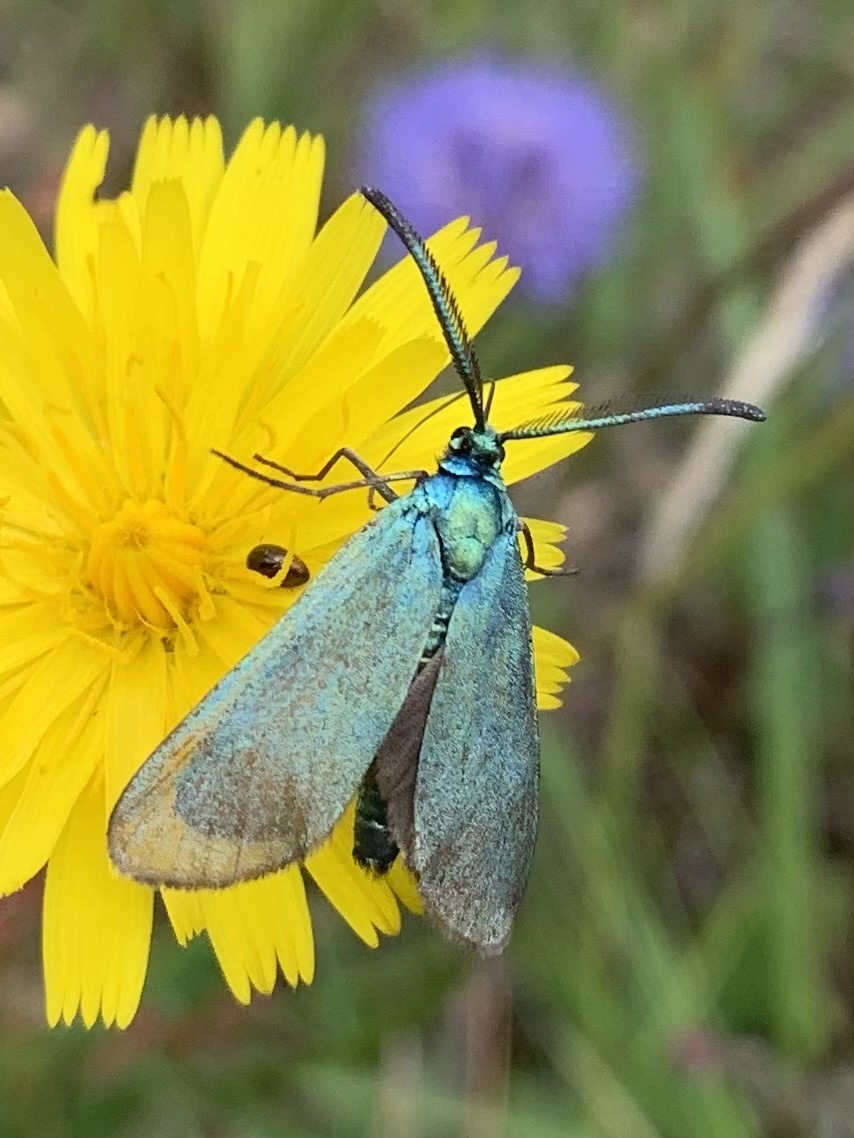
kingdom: Animalia
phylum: Arthropoda
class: Insecta
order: Lepidoptera
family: Zygaenidae
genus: Adscita
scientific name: Adscita statices
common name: Forester
